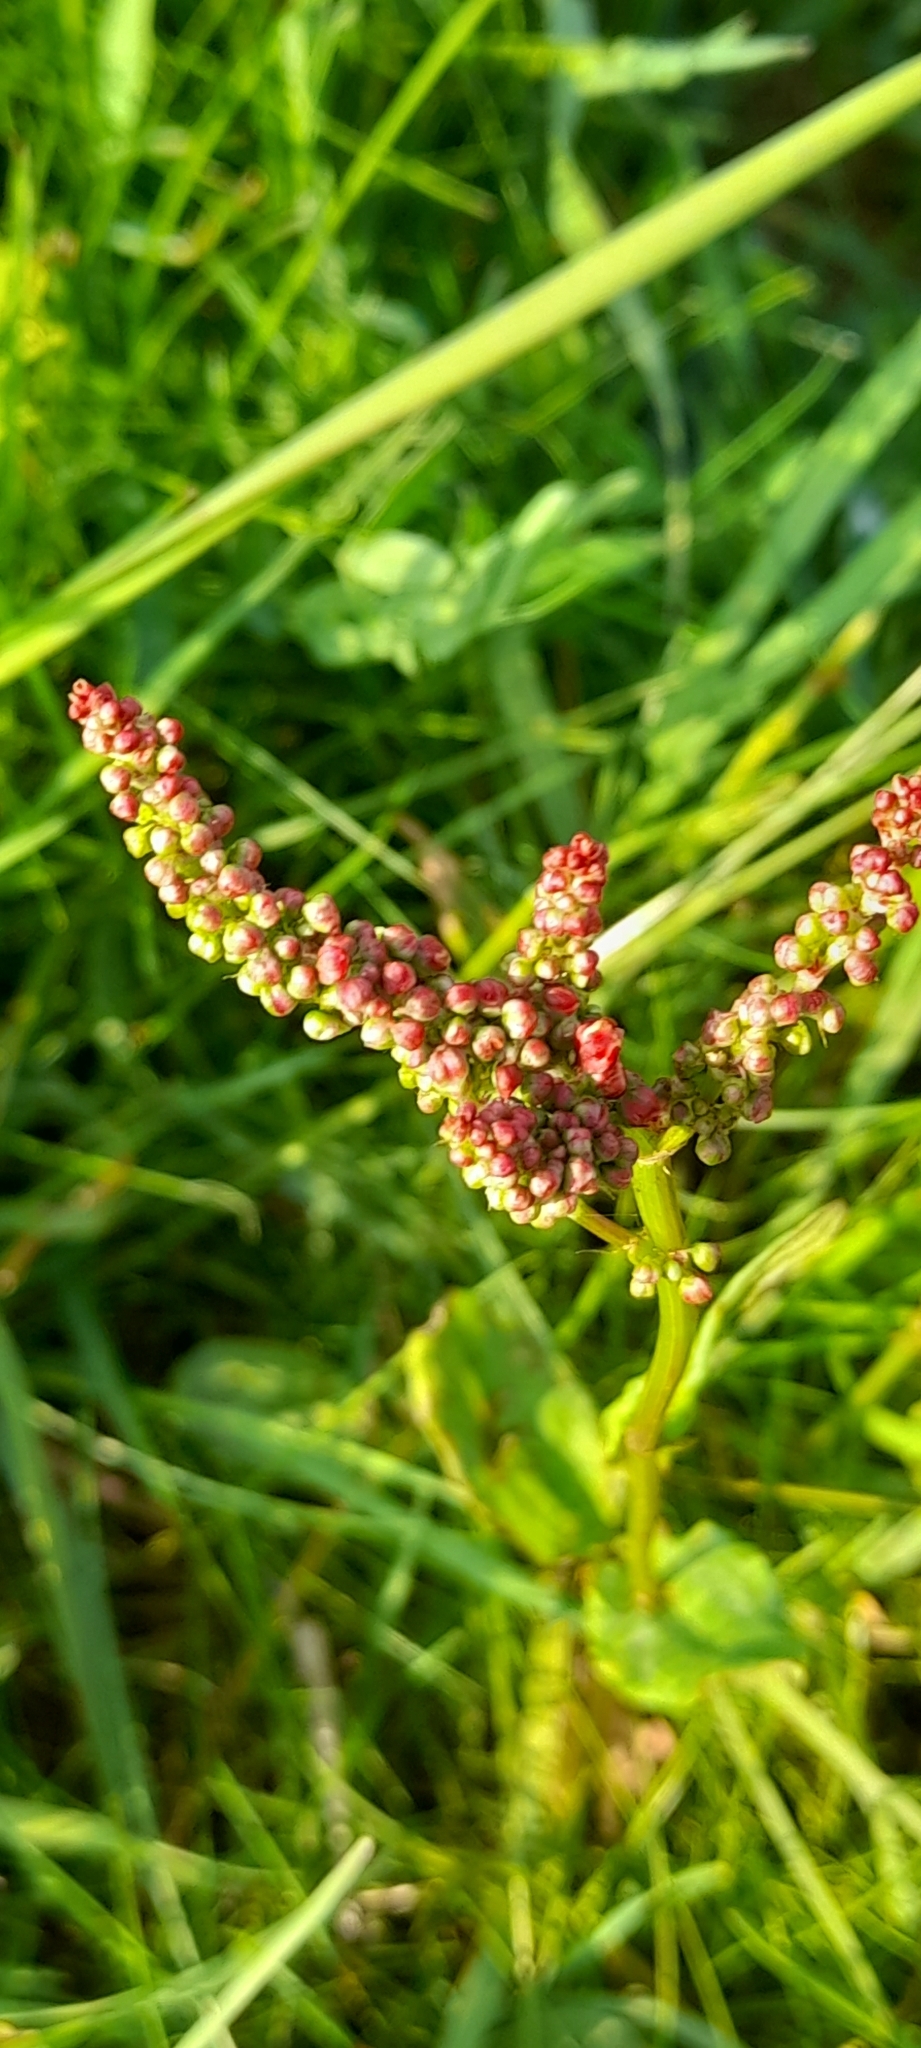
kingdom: Plantae
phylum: Tracheophyta
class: Magnoliopsida
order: Caryophyllales
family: Polygonaceae
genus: Rumex
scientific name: Rumex acetosa
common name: Garden sorrel
